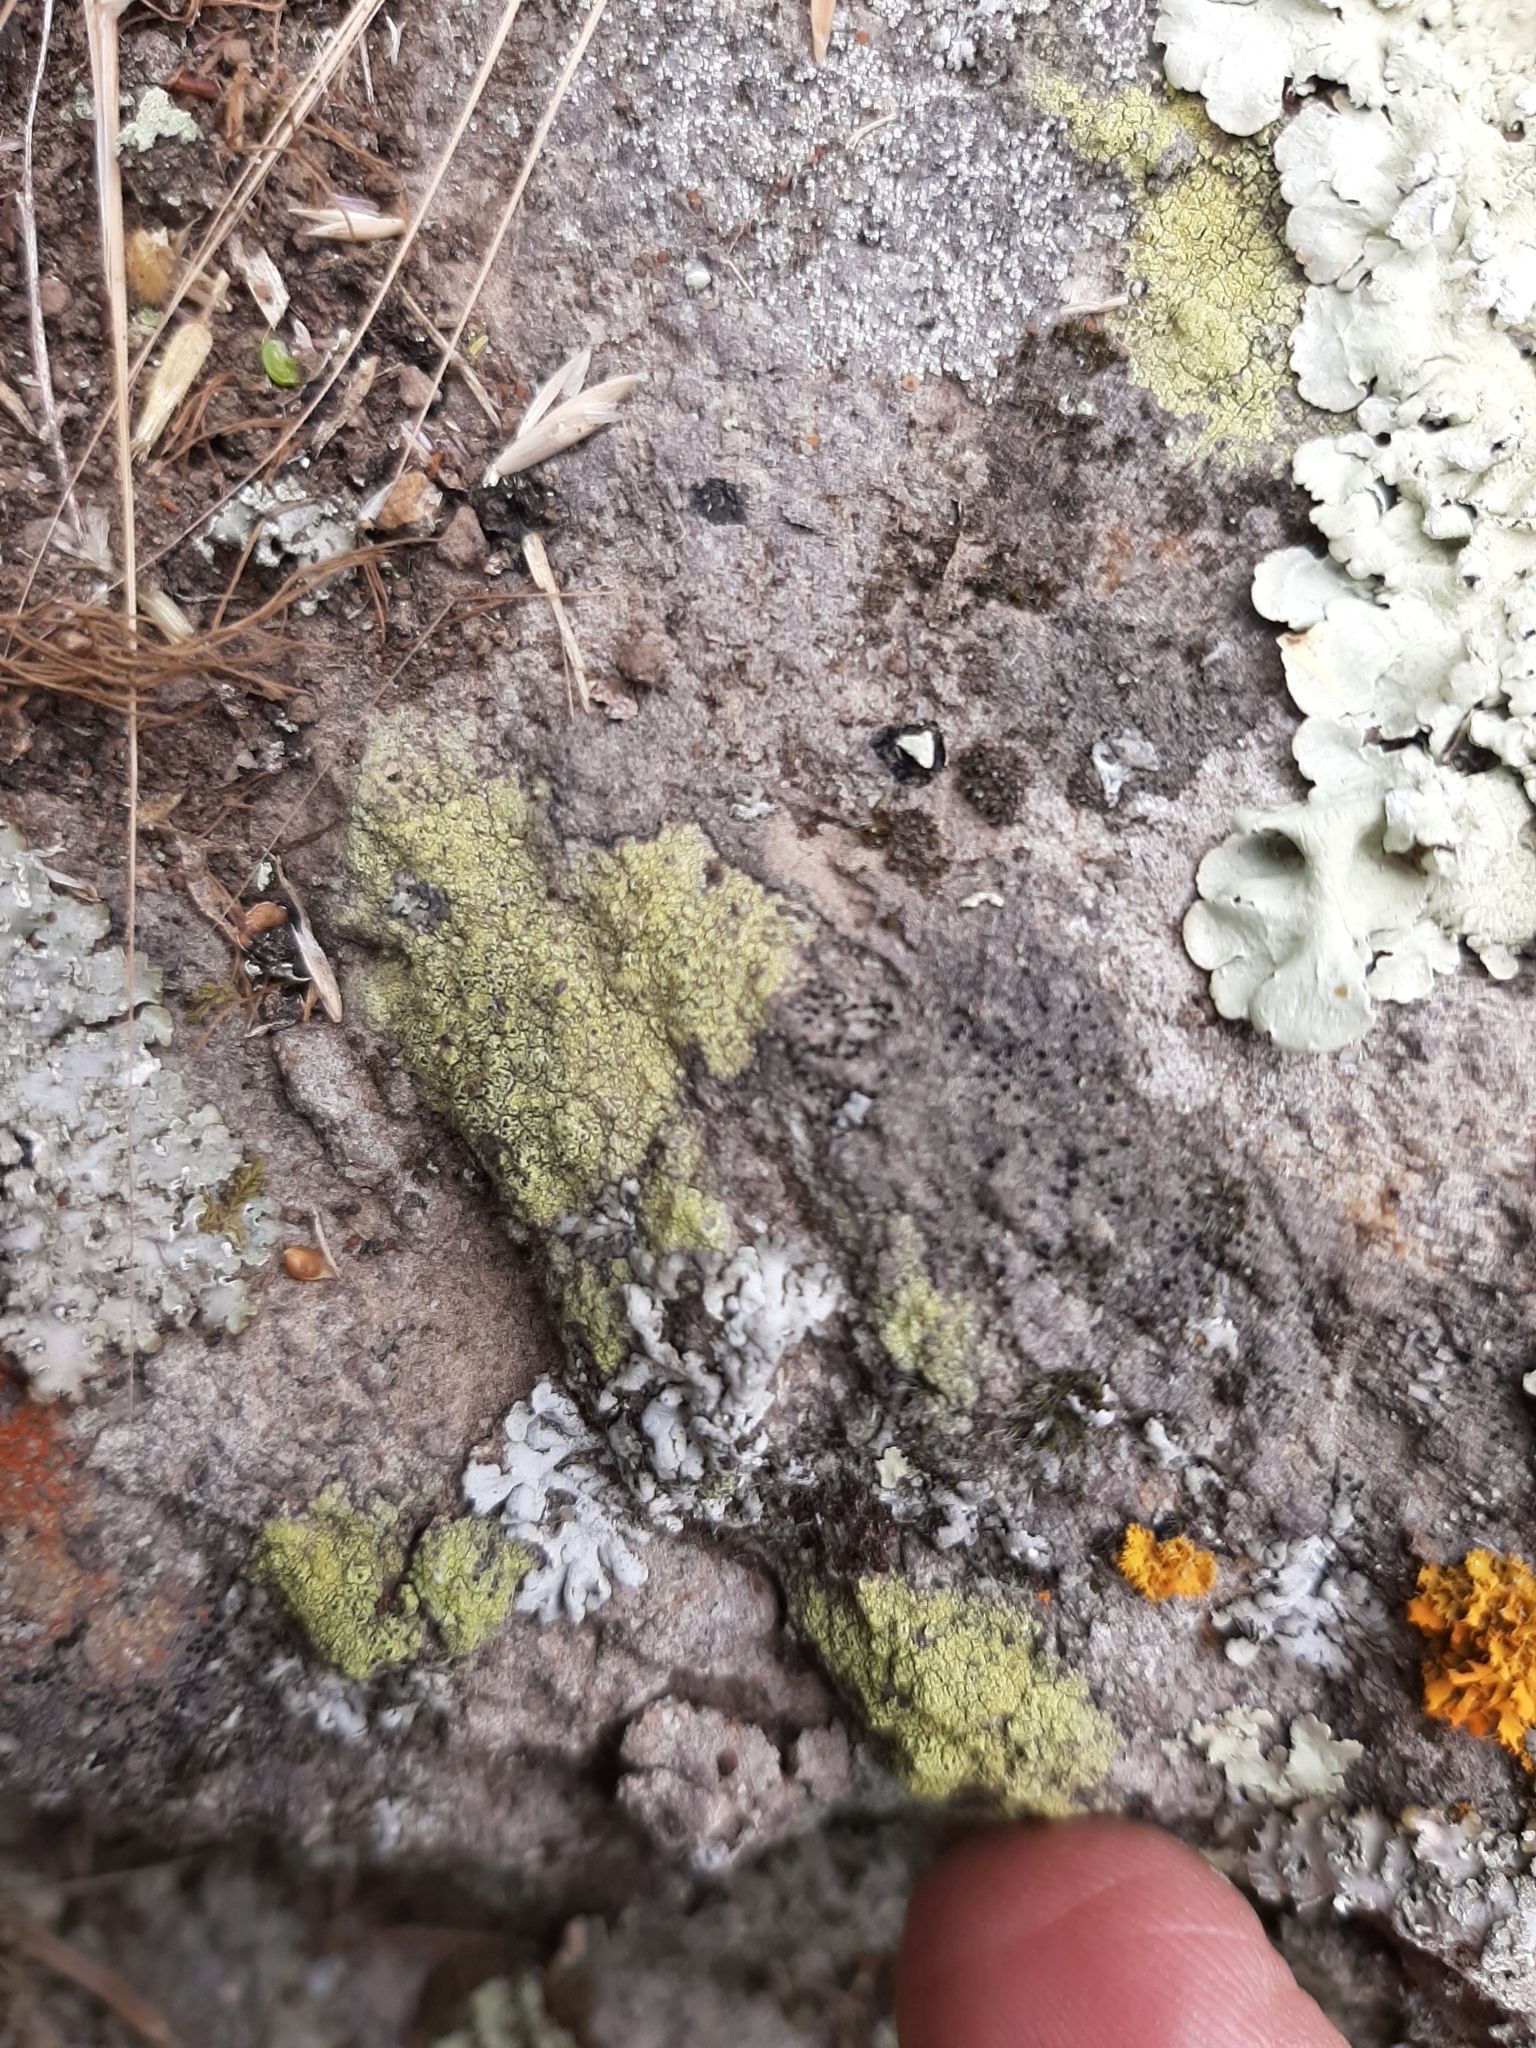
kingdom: Fungi
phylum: Ascomycota
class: Lecanoromycetes
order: Caliciales
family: Physciaceae
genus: Huriopsis
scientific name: Huriopsis thiomela
